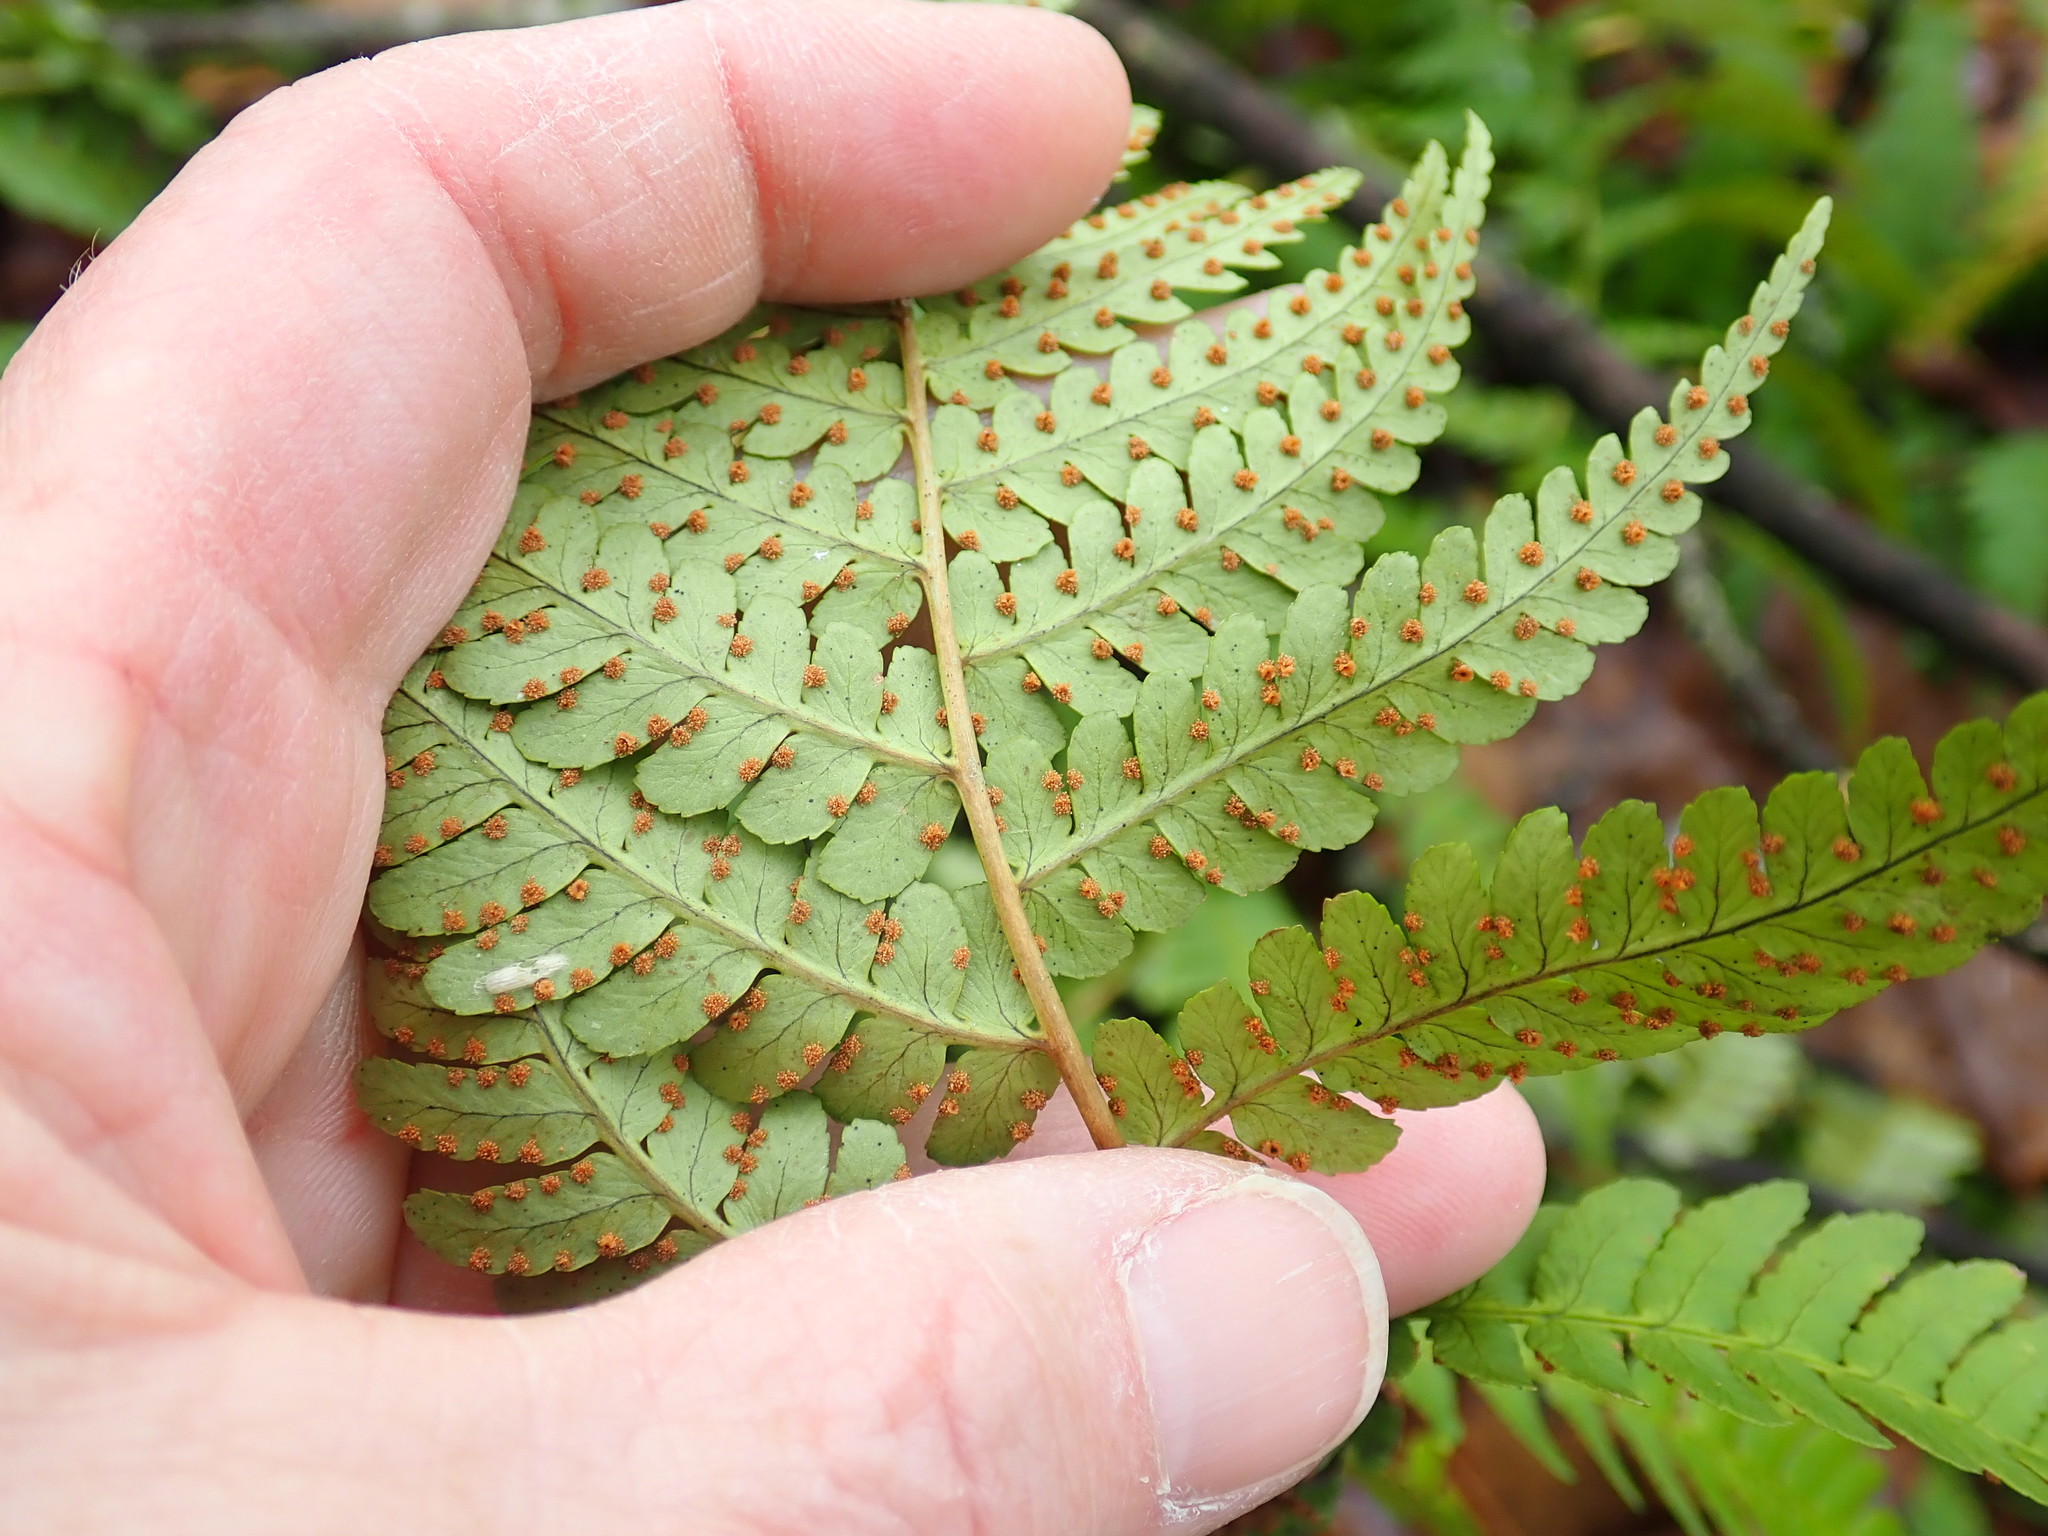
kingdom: Plantae
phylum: Tracheophyta
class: Polypodiopsida
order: Polypodiales
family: Dryopteridaceae
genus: Dryopteris
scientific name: Dryopteris marginalis
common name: Marginal wood fern
